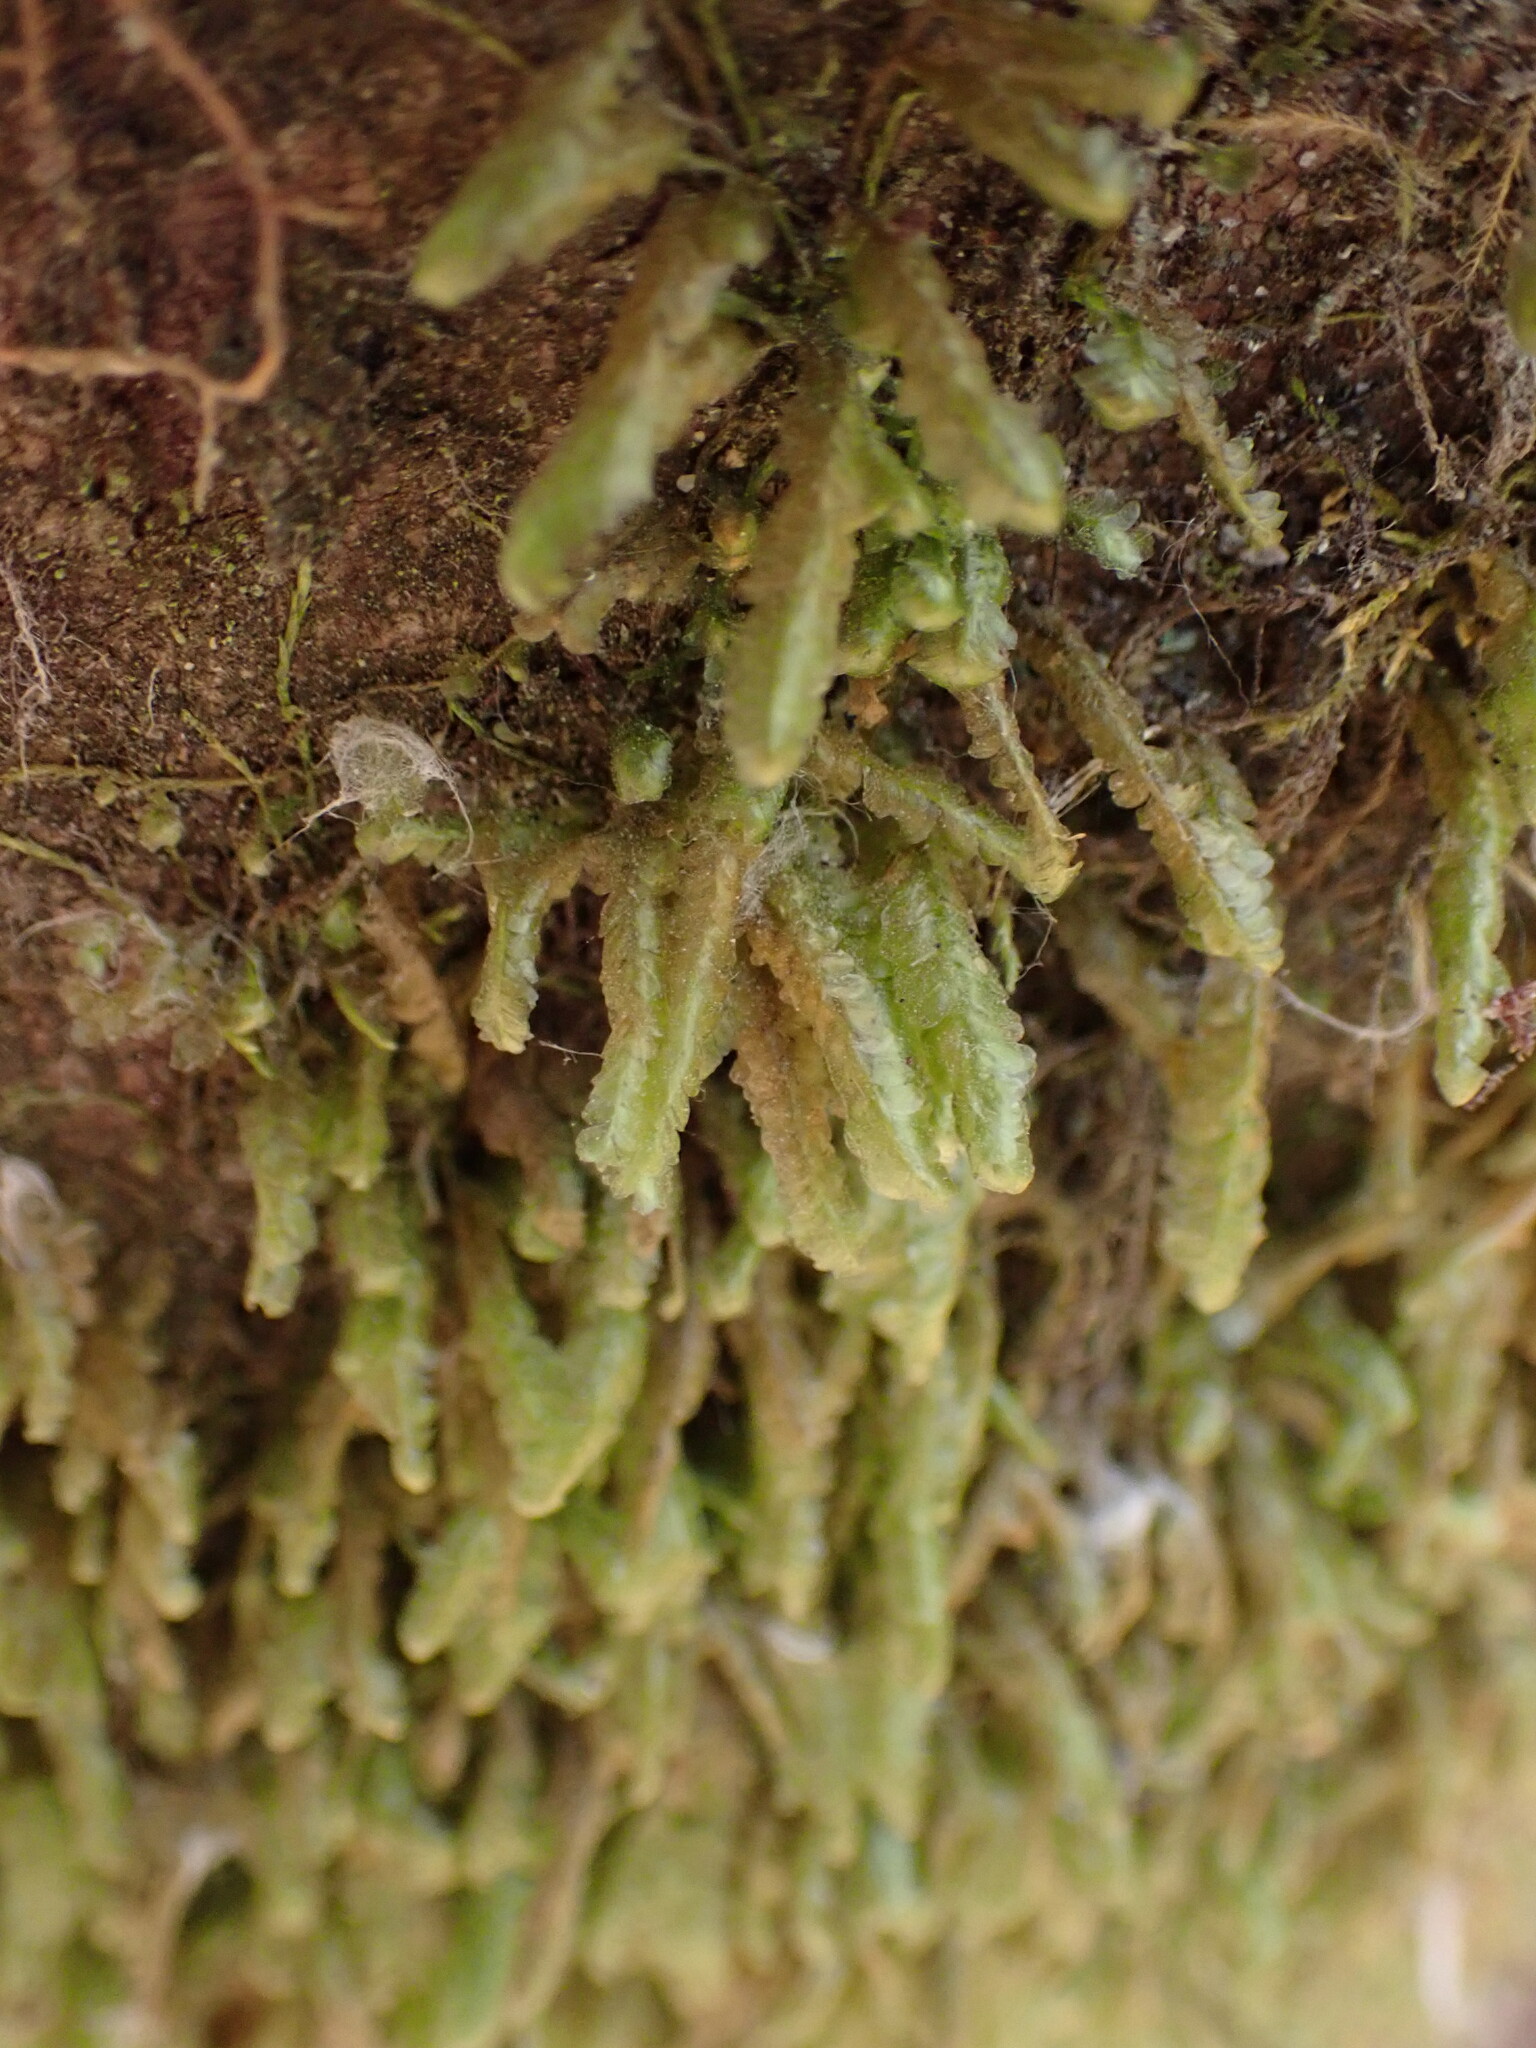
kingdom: Plantae
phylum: Bryophyta
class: Bryopsida
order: Hypnales
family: Neckeraceae
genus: Homalia
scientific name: Homalia trichomanoides
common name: Lime homalia moss
